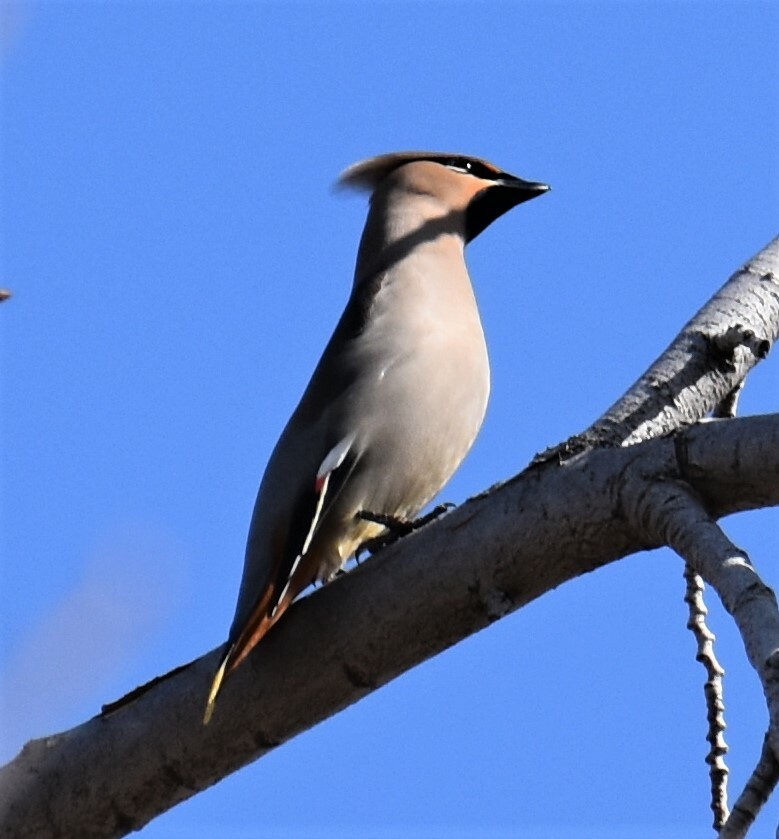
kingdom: Animalia
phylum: Chordata
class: Aves
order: Passeriformes
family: Bombycillidae
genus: Bombycilla
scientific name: Bombycilla garrulus
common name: Bohemian waxwing
